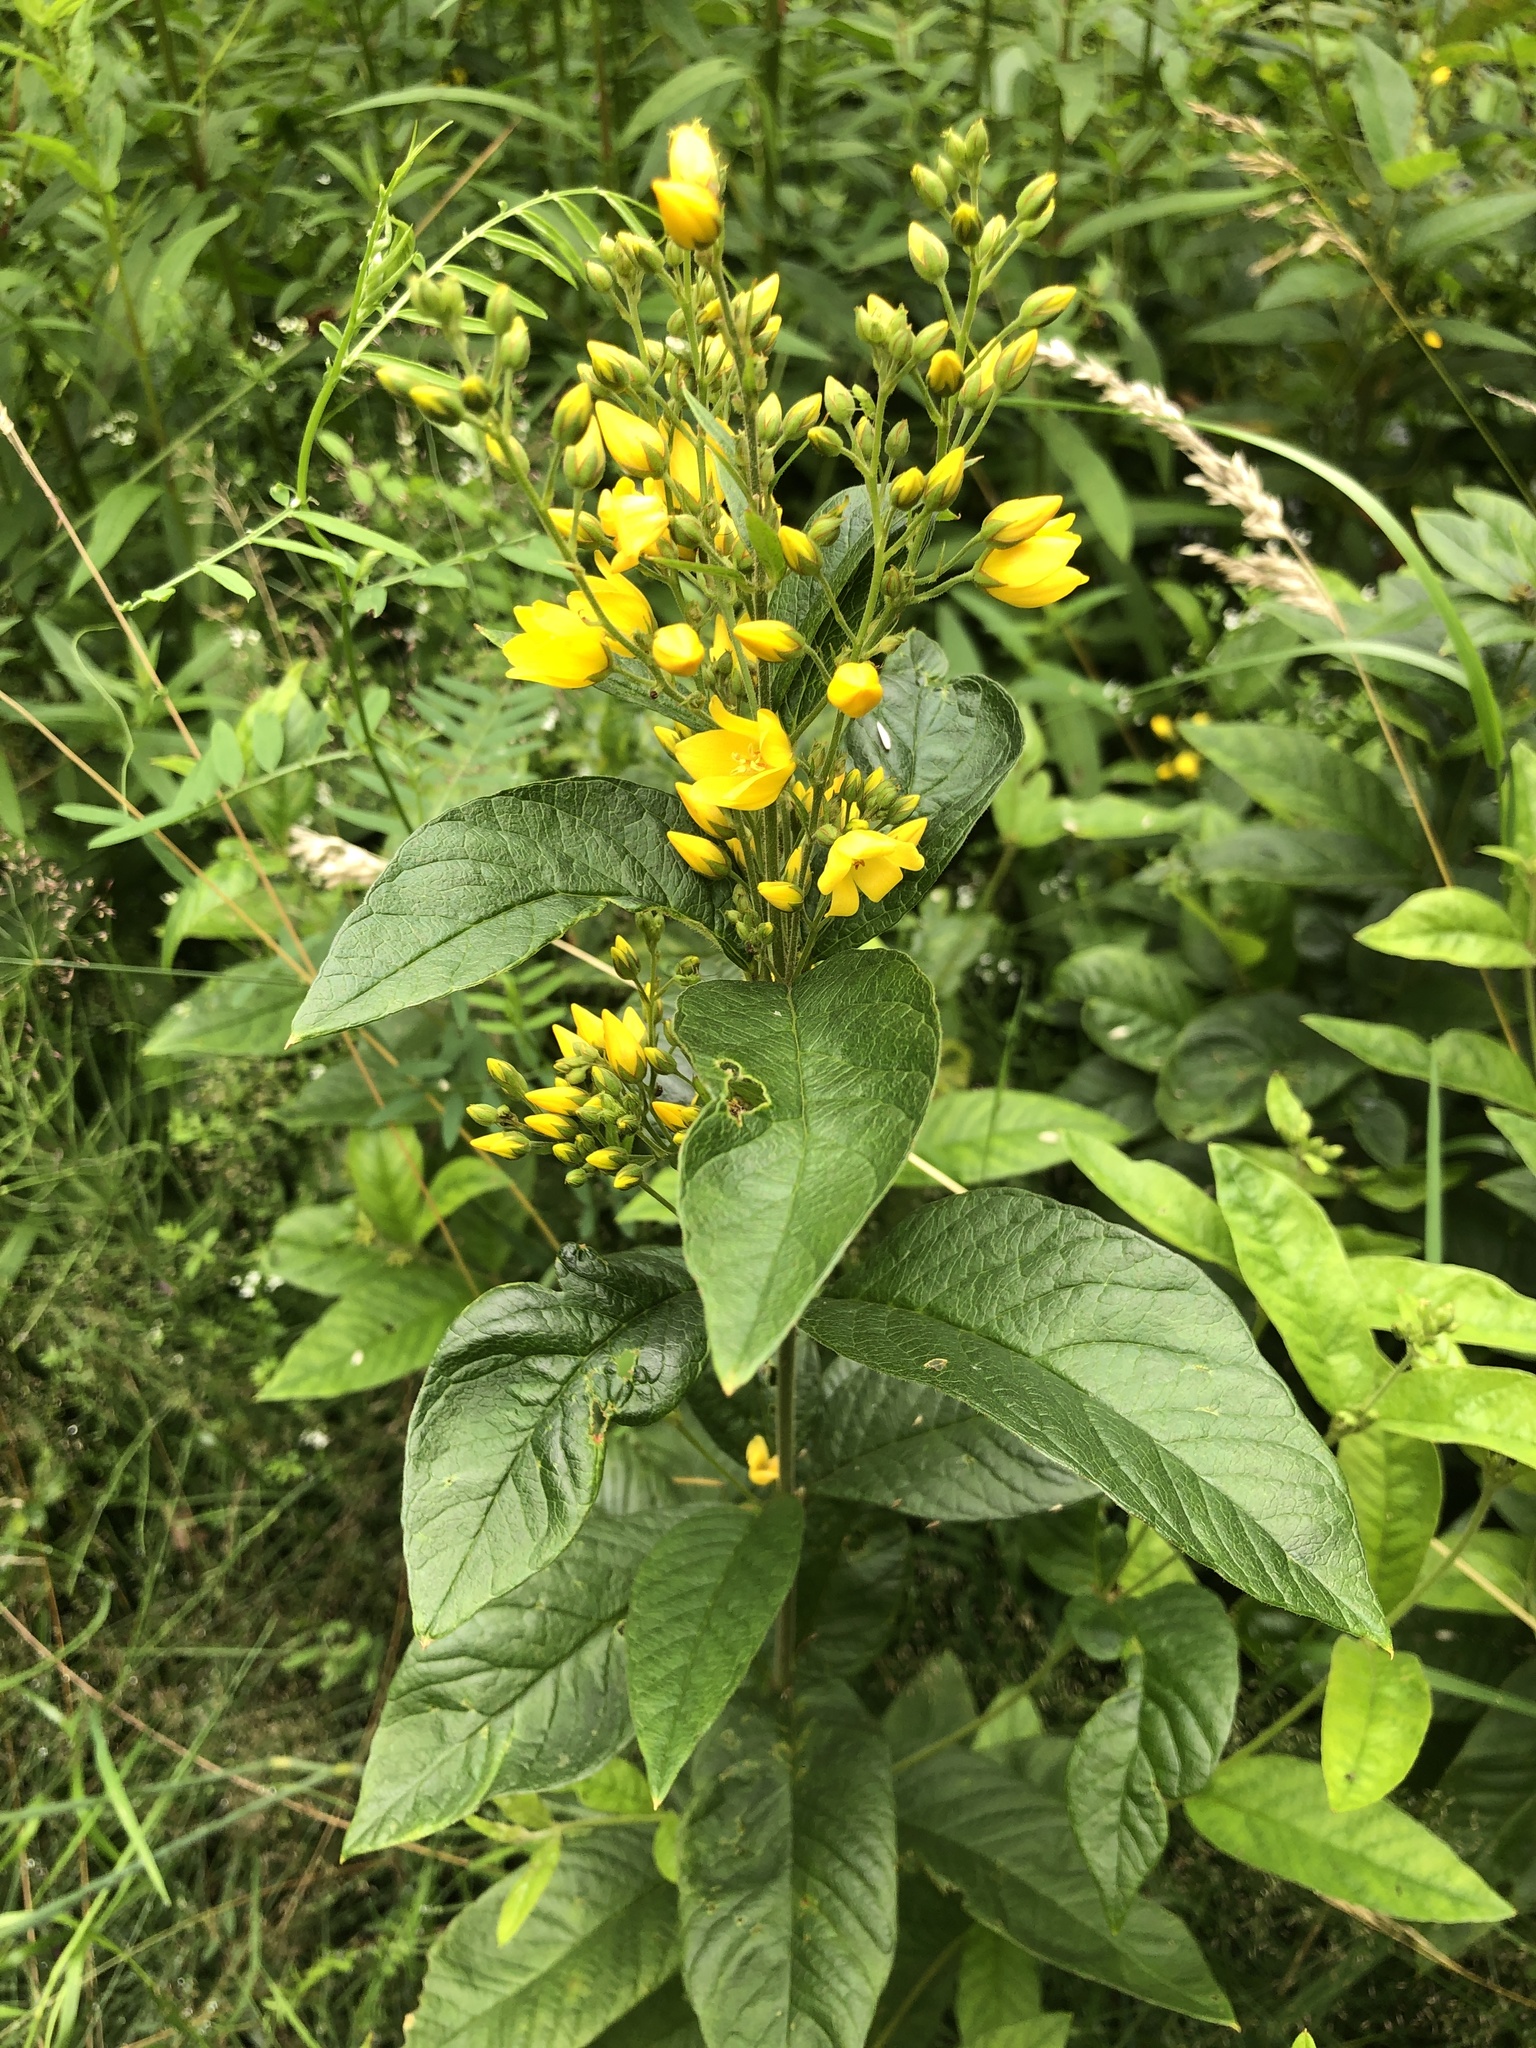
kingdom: Plantae
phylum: Tracheophyta
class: Magnoliopsida
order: Ericales
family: Primulaceae
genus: Lysimachia
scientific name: Lysimachia vulgaris
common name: Yellow loosestrife
